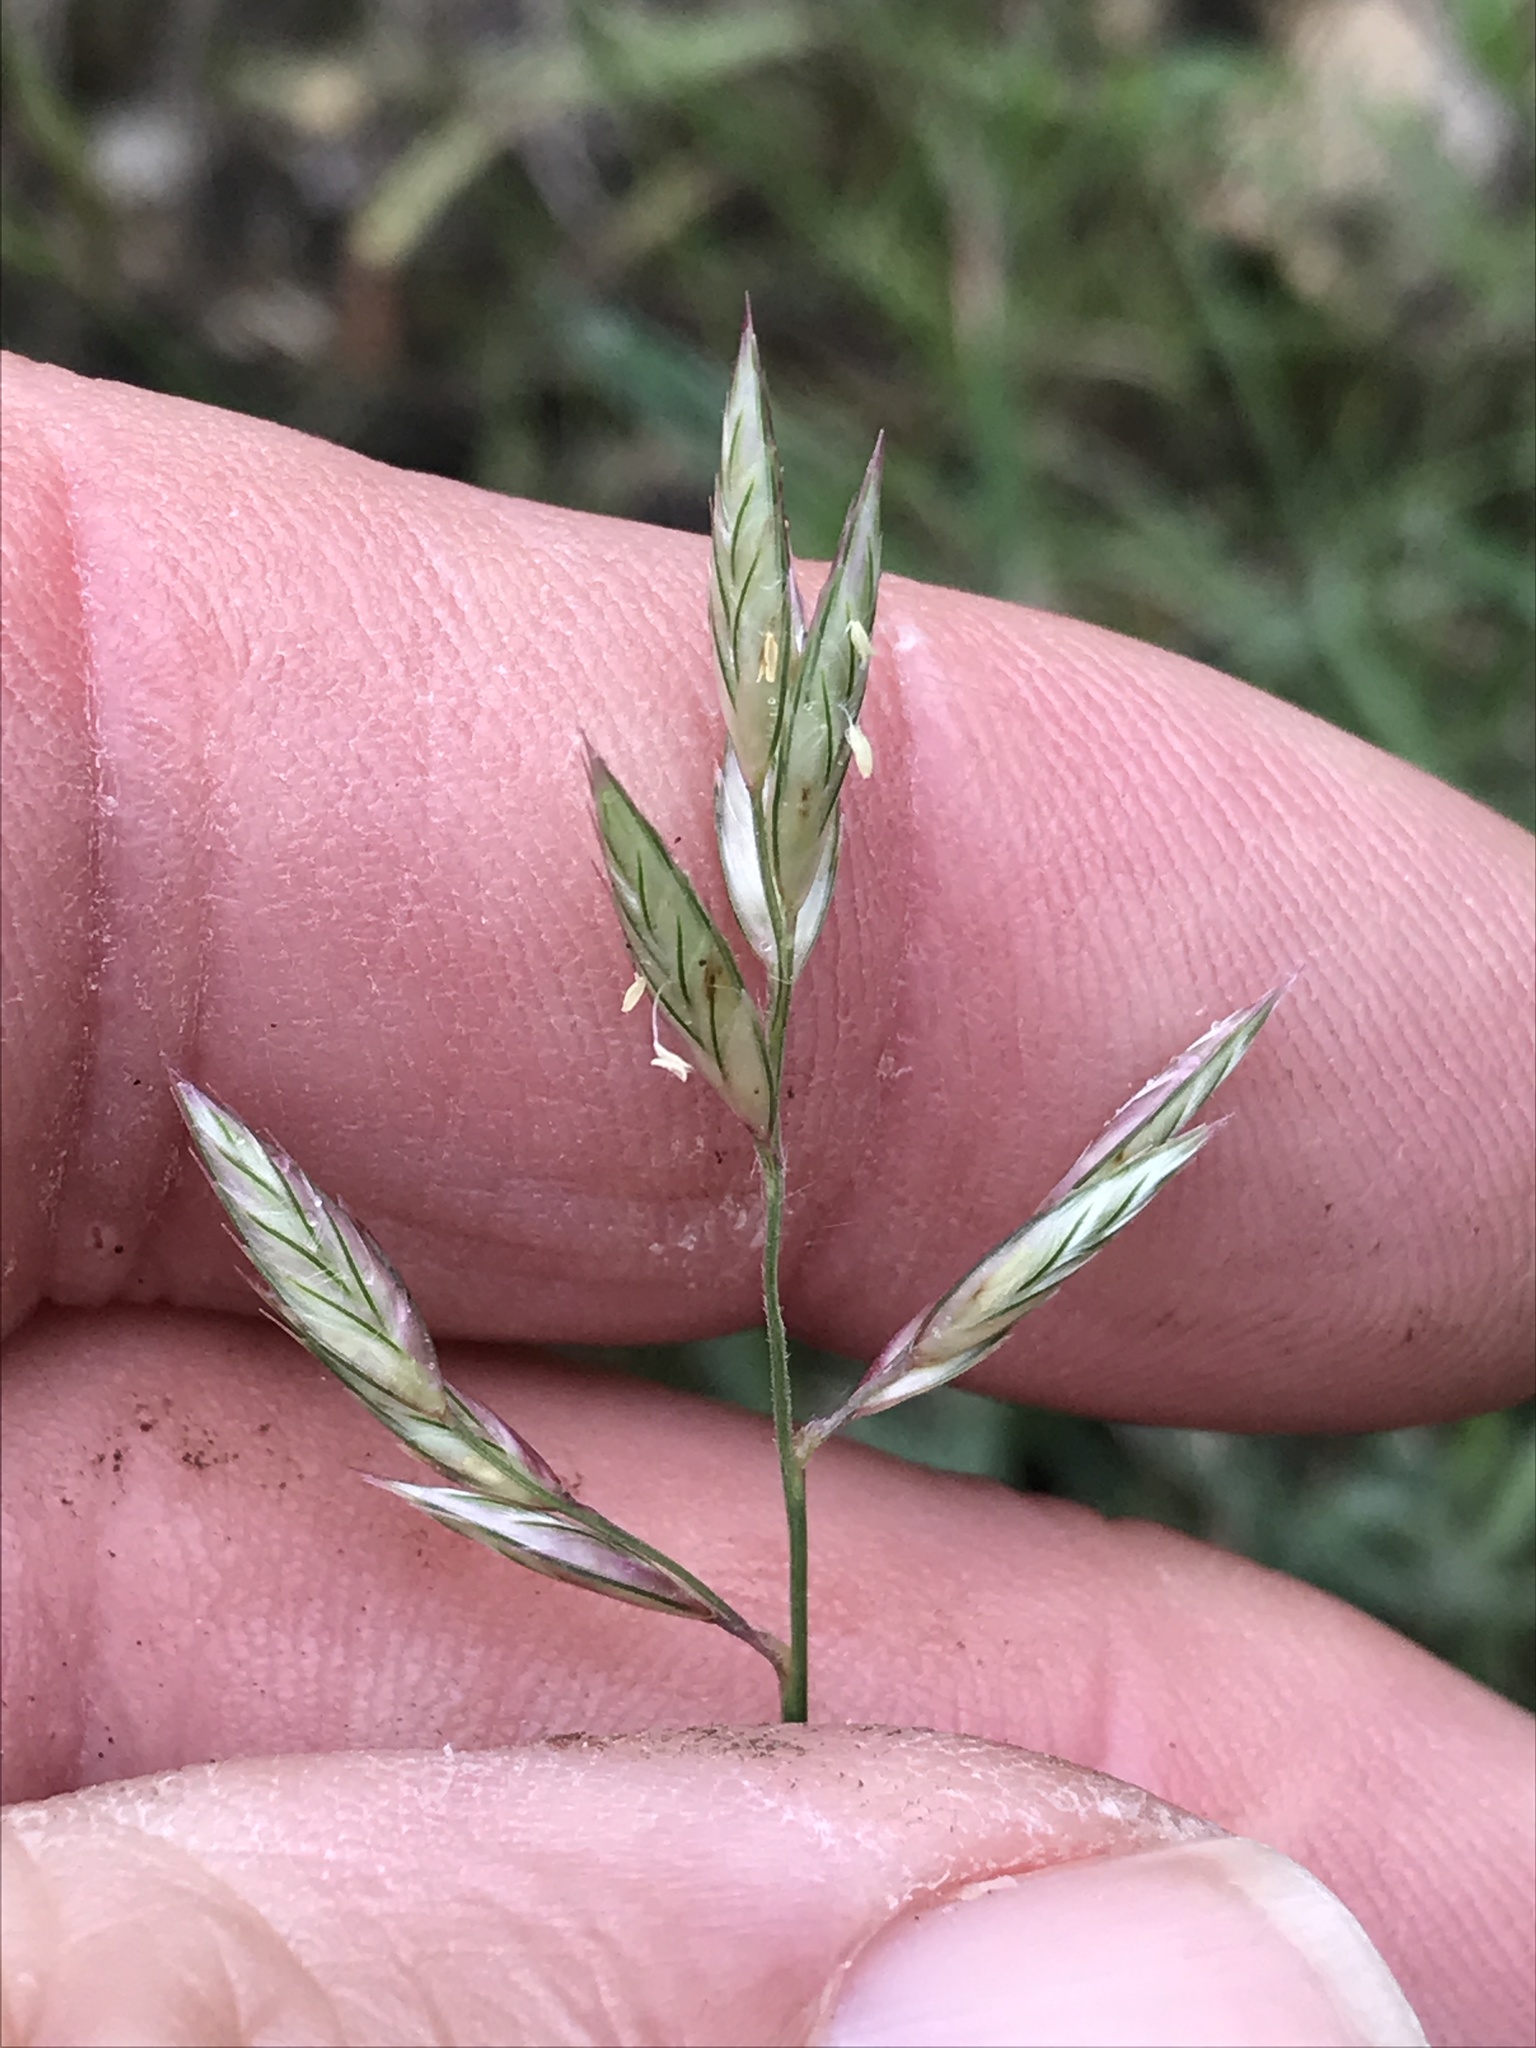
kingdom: Plantae
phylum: Tracheophyta
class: Liliopsida
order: Poales
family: Poaceae
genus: Erioneuron
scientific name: Erioneuron pilosum
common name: Hairy woolly grass
